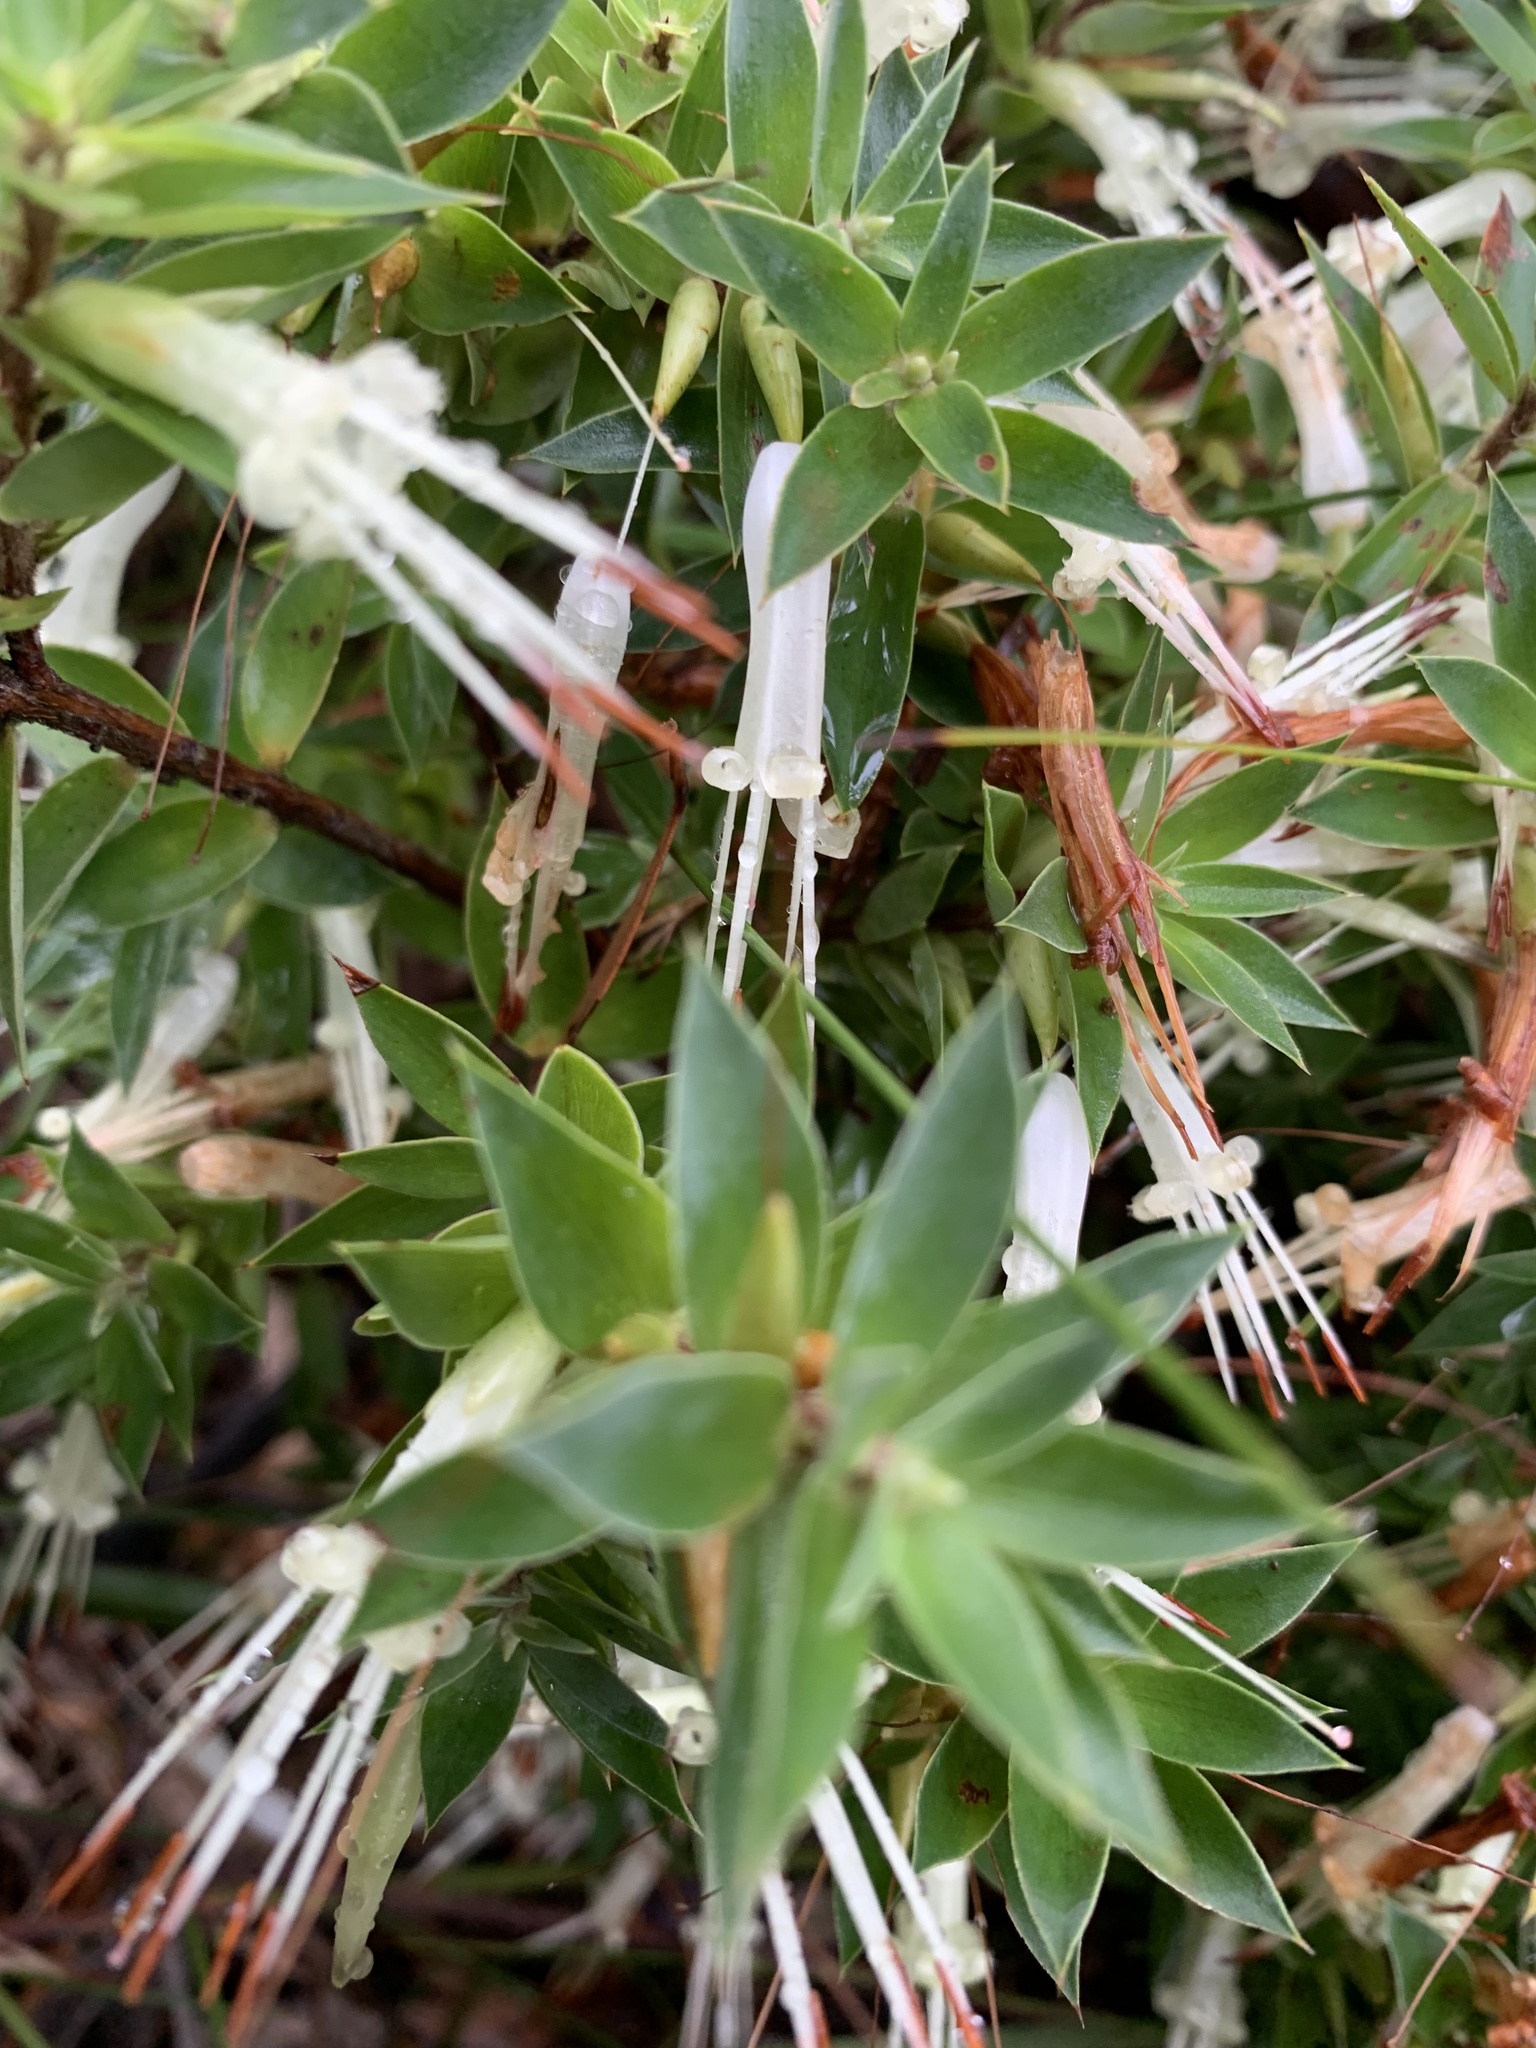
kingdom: Plantae
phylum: Tracheophyta
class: Magnoliopsida
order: Ericales
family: Ericaceae
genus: Styphelia
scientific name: Styphelia laeta
